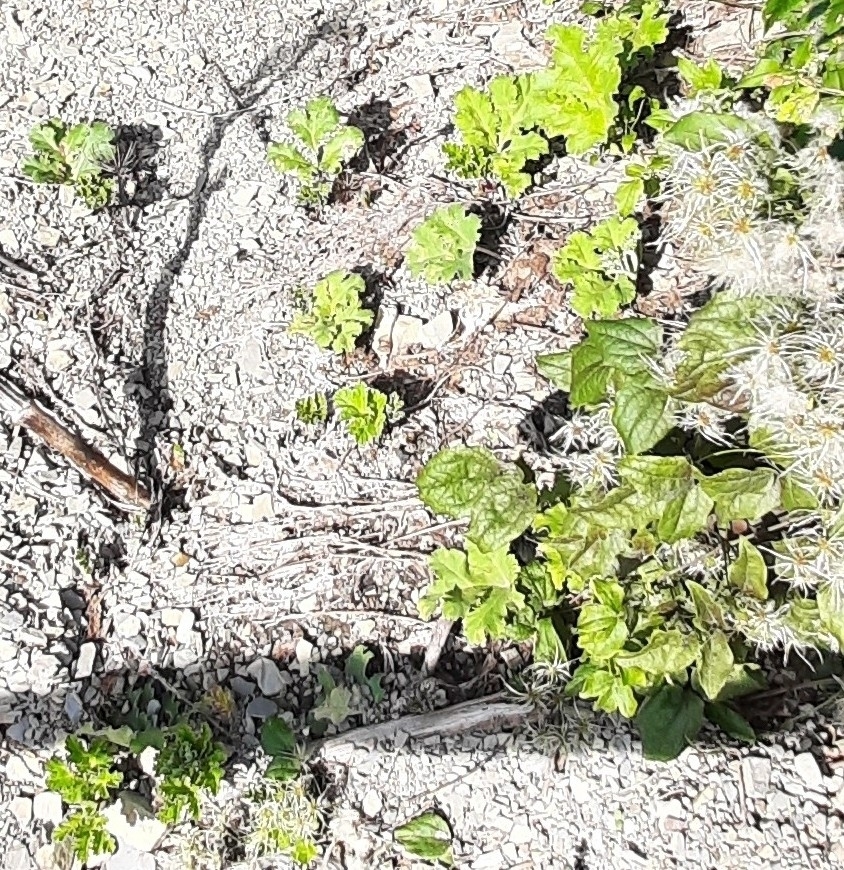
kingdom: Plantae
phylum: Tracheophyta
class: Magnoliopsida
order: Apiales
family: Apiaceae
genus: Heracleum
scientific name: Heracleum stevenii
